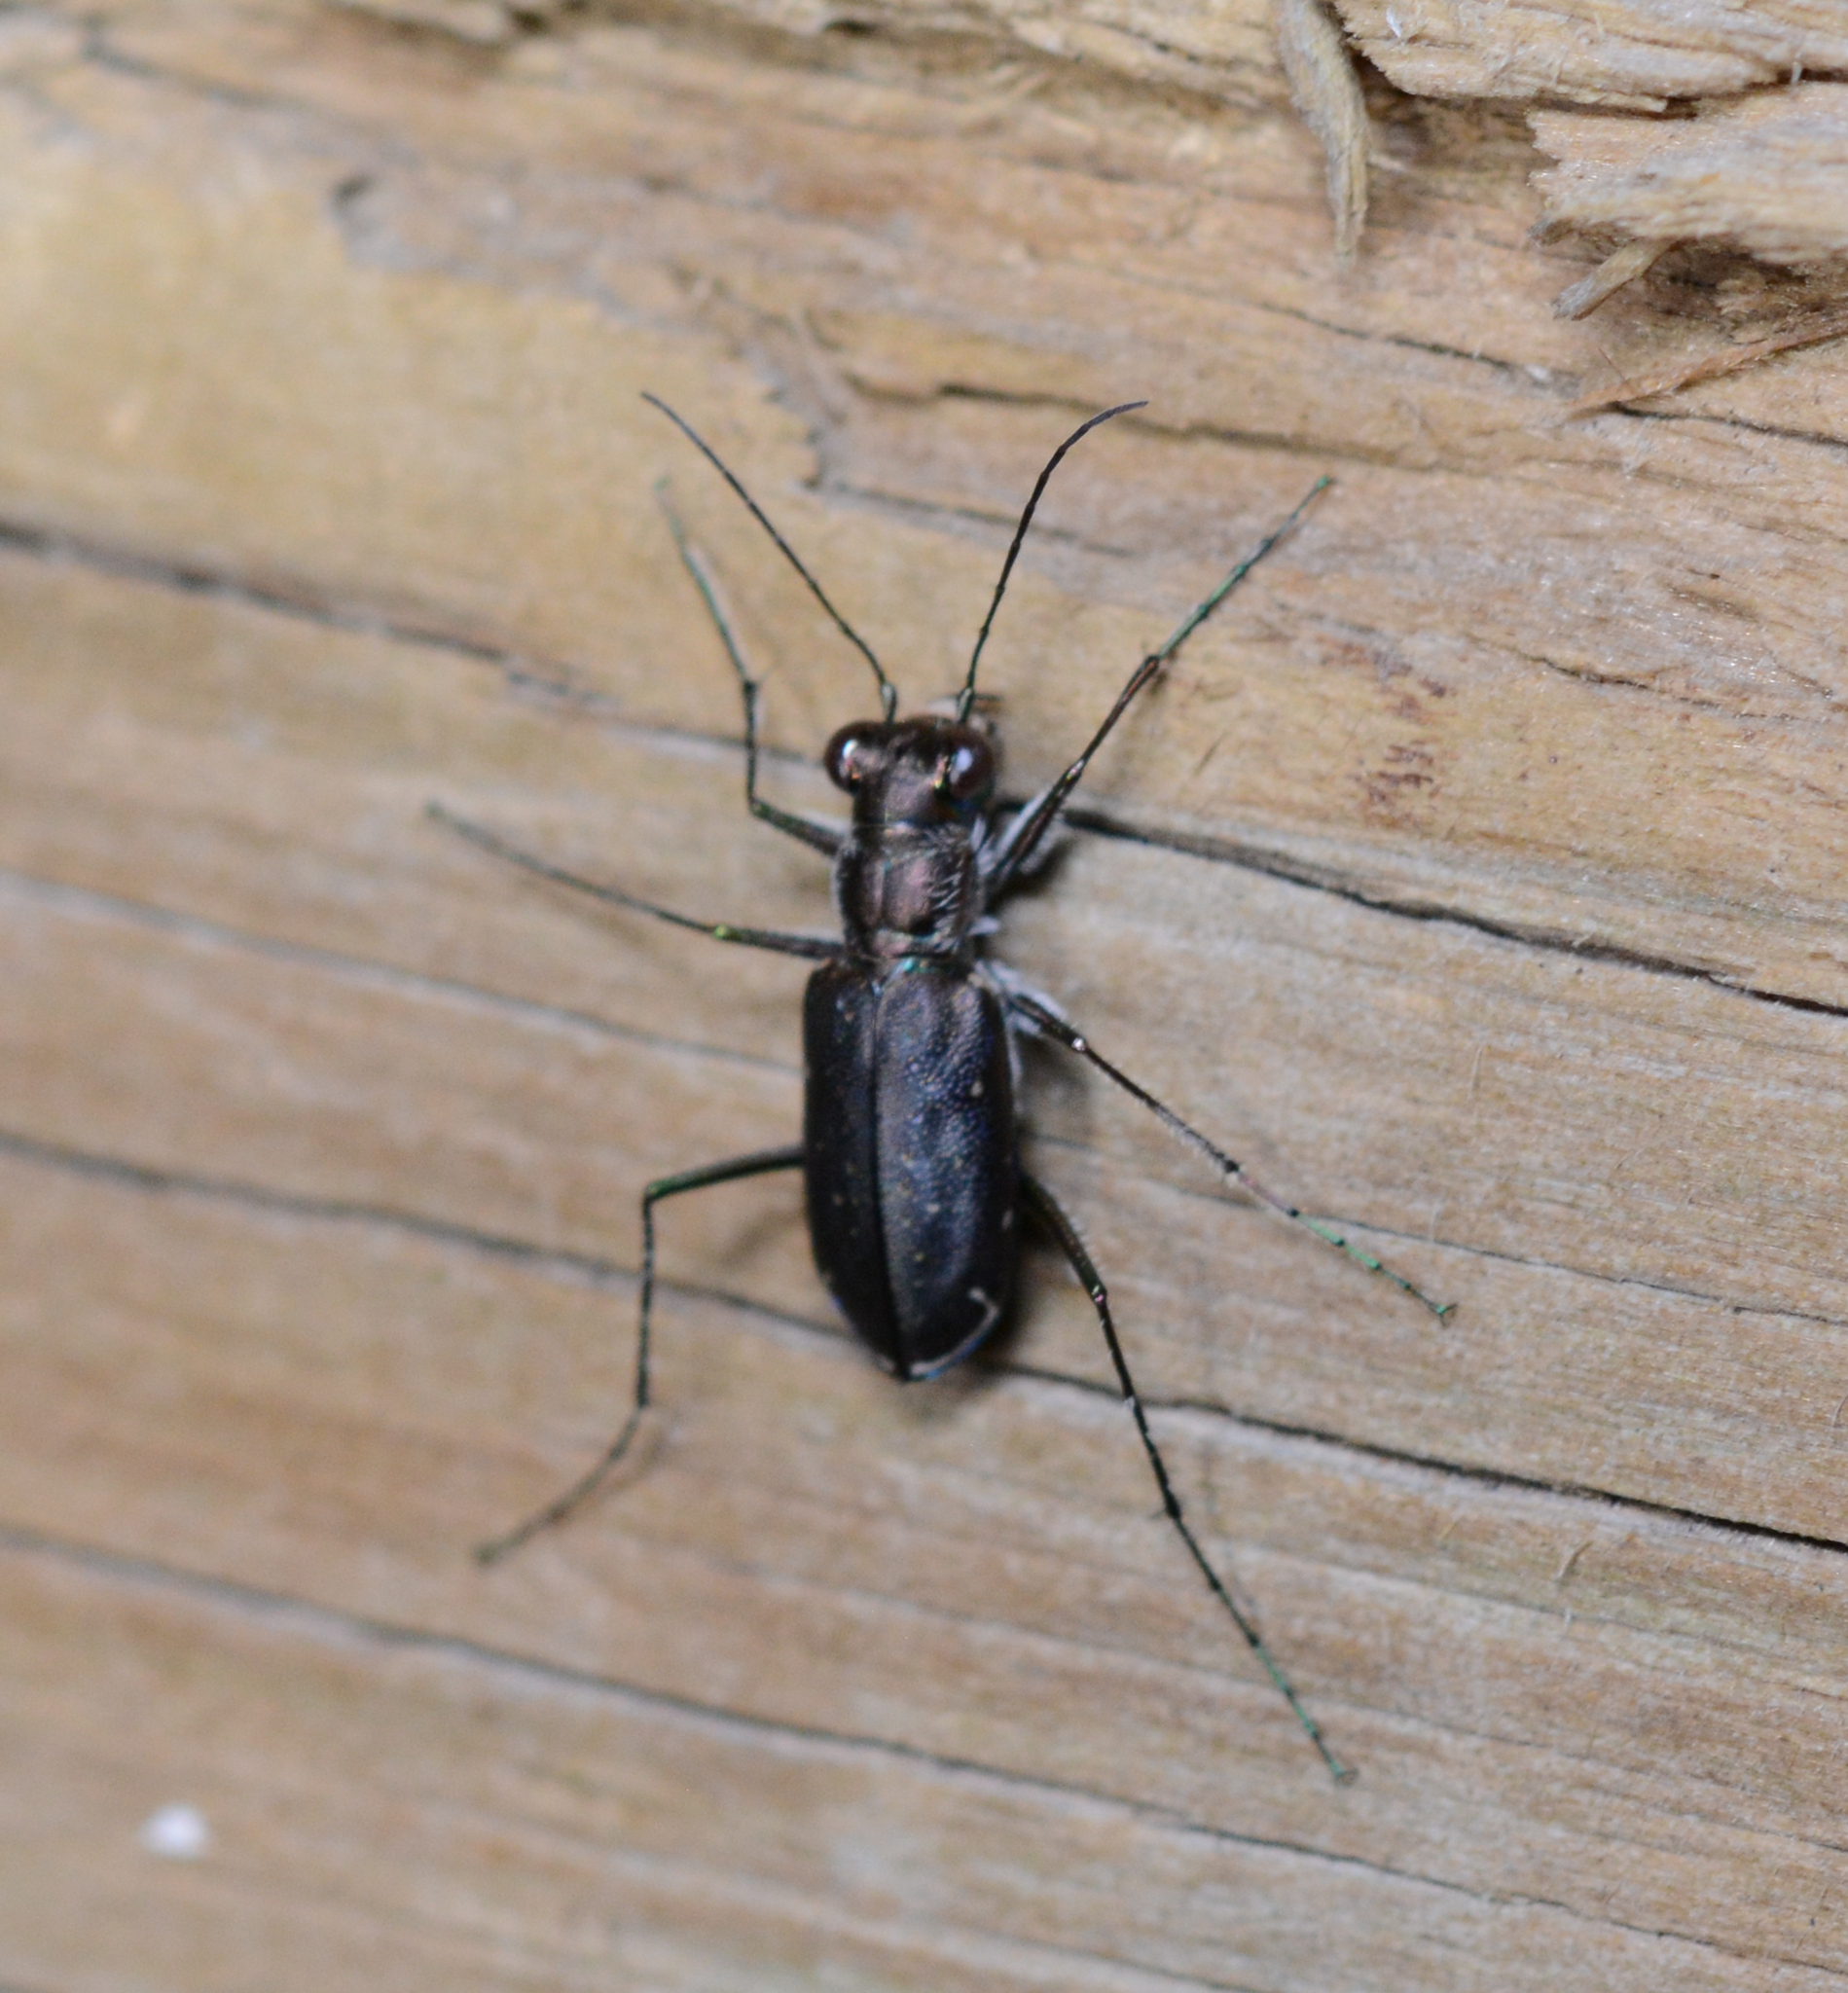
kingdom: Animalia
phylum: Arthropoda
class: Insecta
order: Coleoptera
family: Carabidae
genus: Cicindela
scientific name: Cicindela punctulata
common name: Punctured tiger beetle
